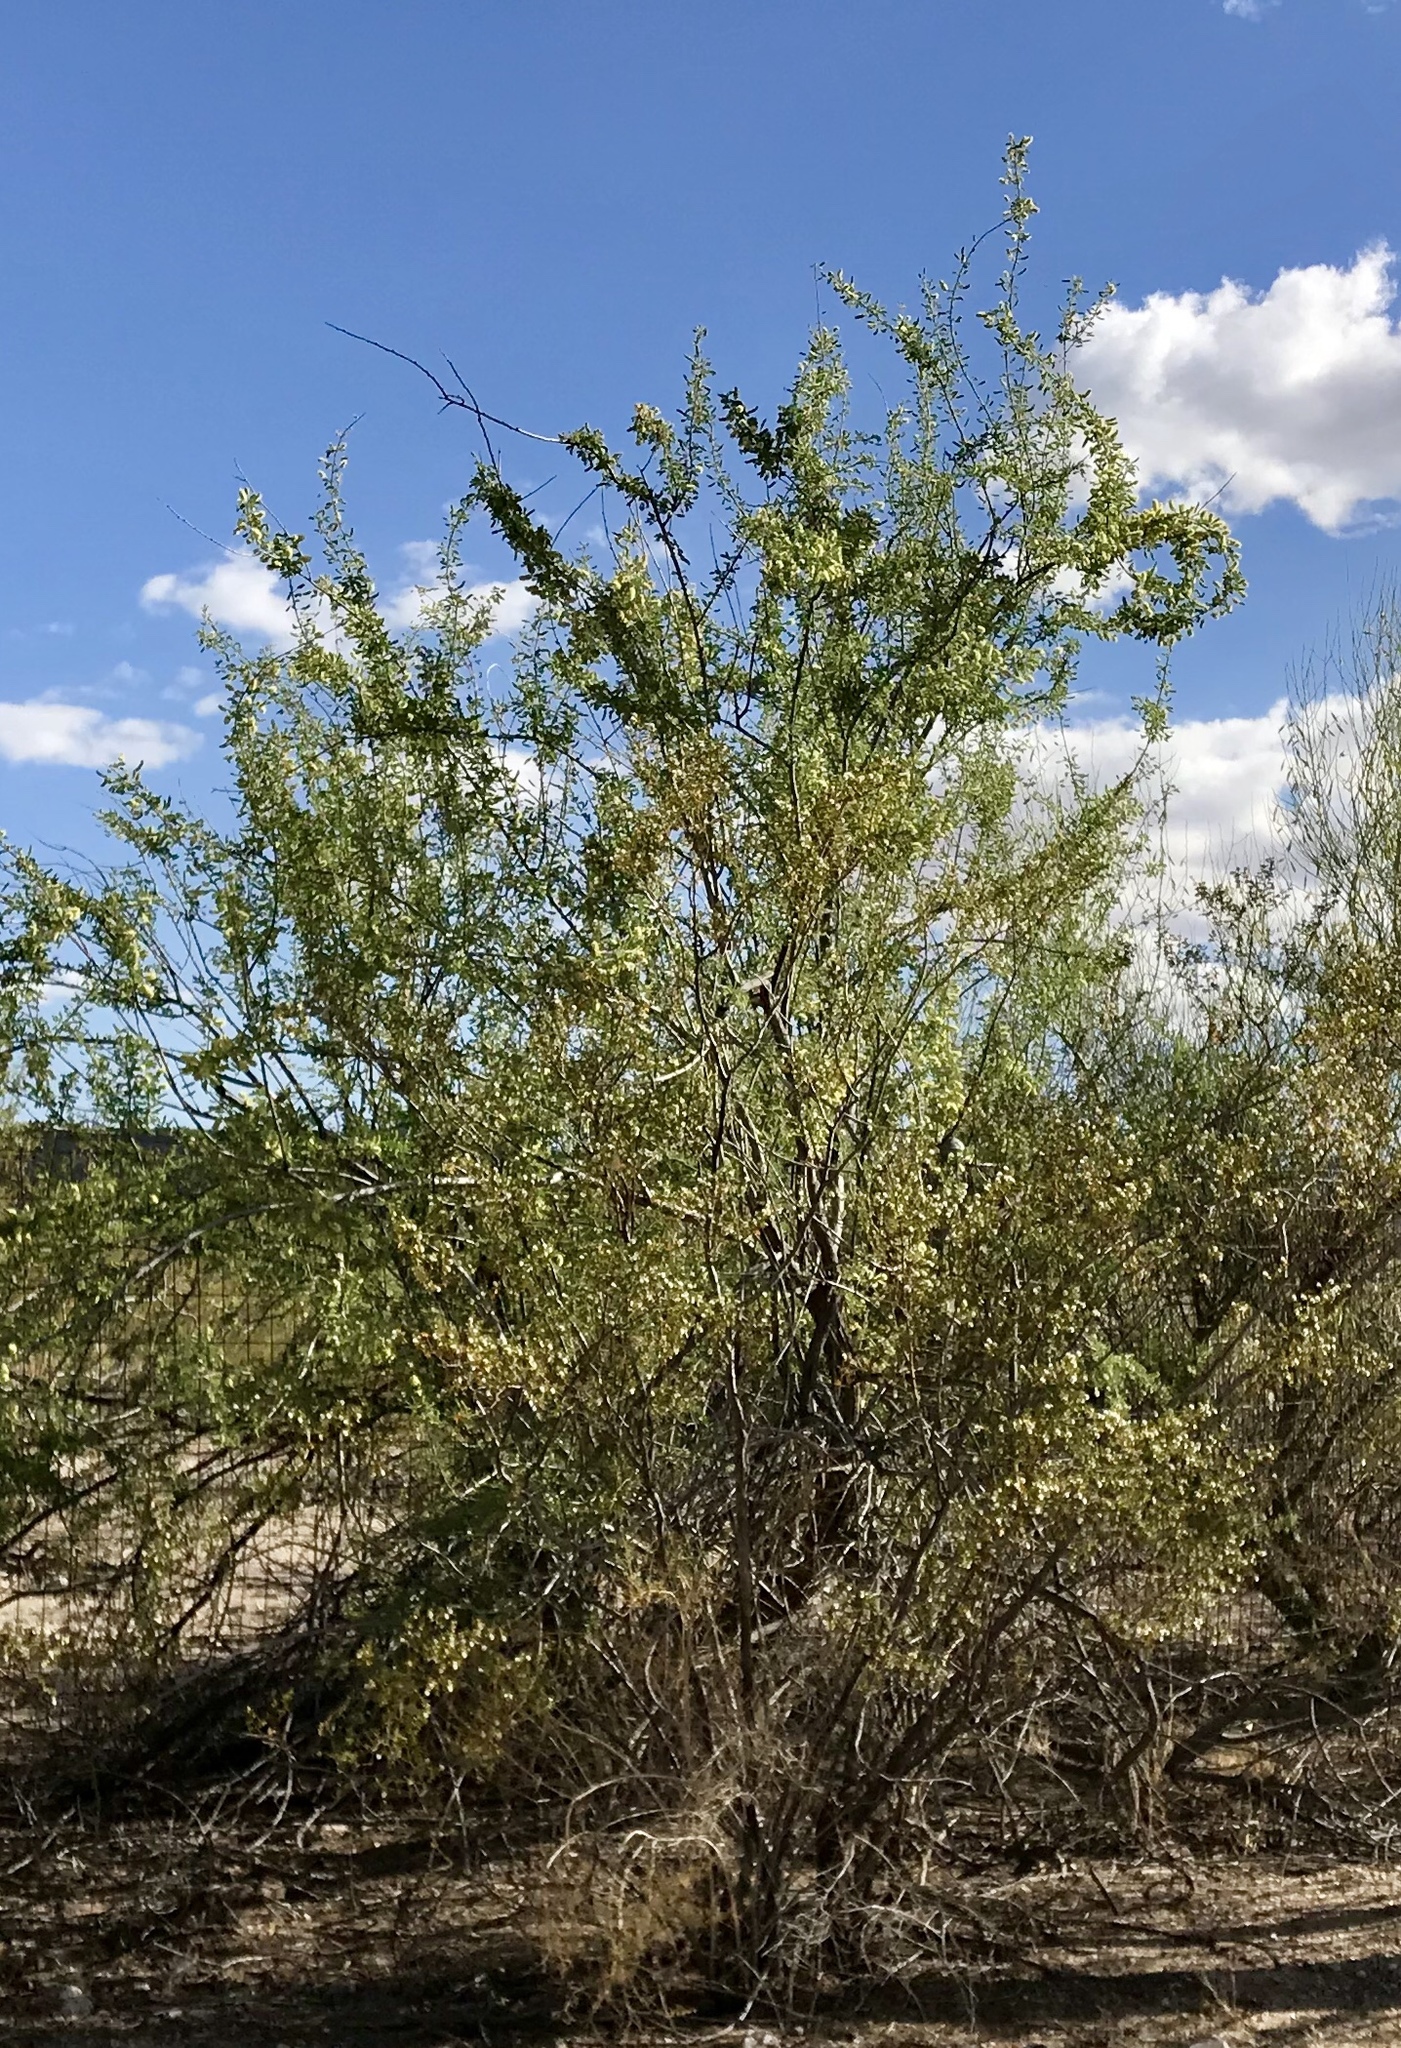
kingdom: Plantae
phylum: Tracheophyta
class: Magnoliopsida
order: Fabales
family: Fabaceae
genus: Senegalia
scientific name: Senegalia greggii
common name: Texas-mimosa
